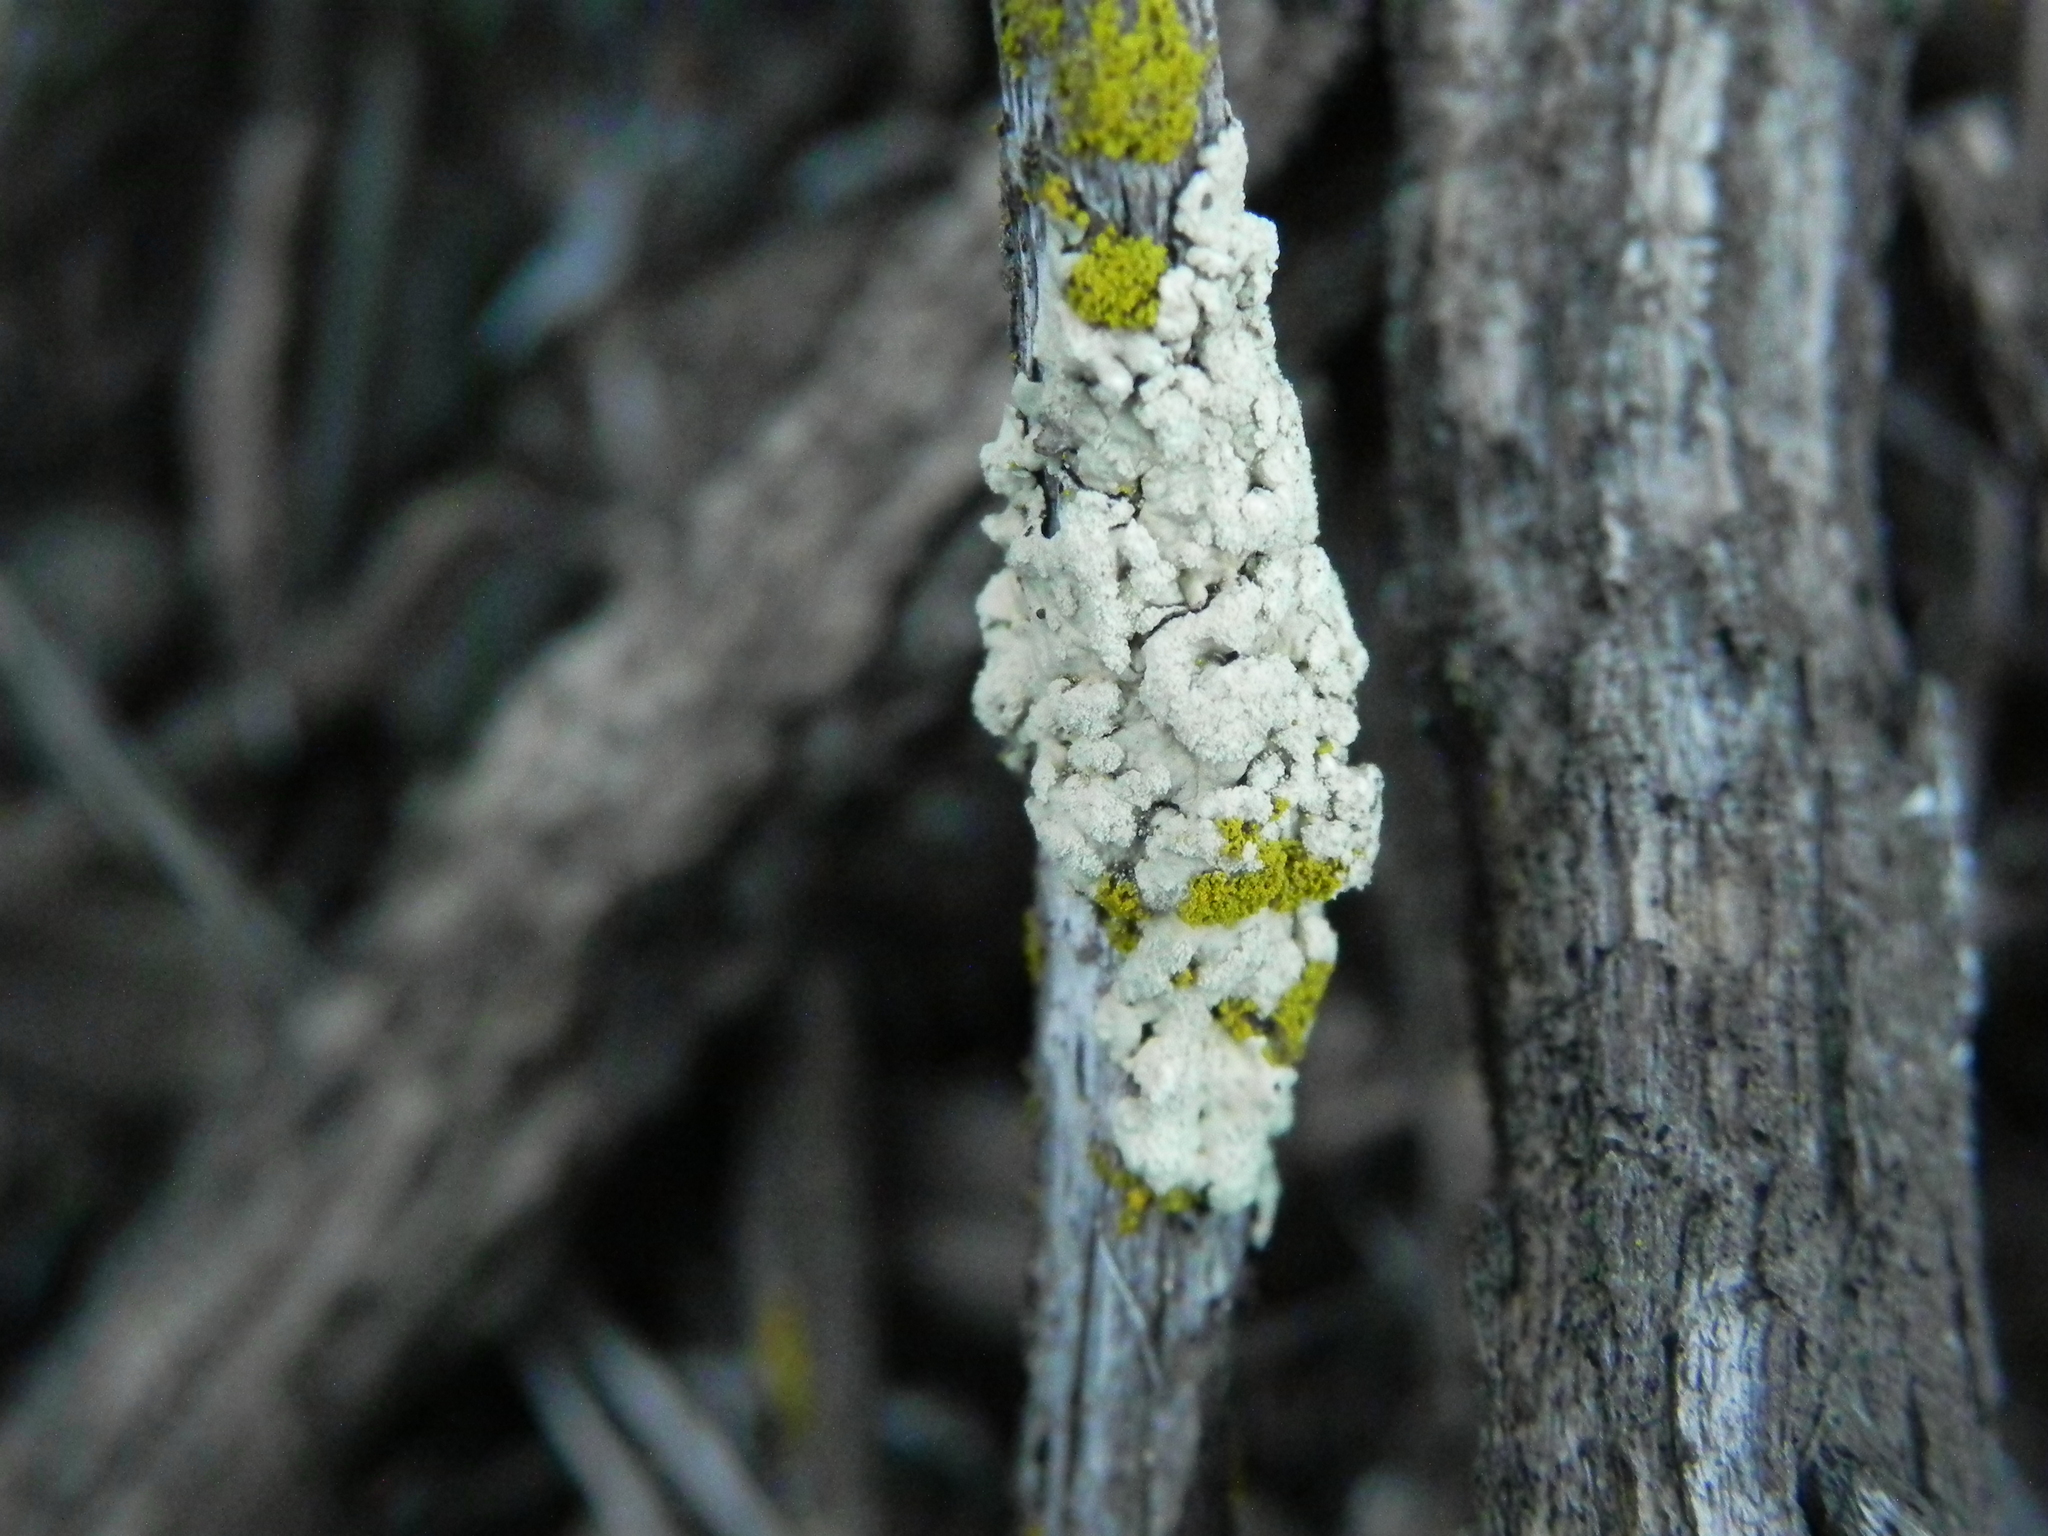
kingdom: Fungi
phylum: Ascomycota
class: Lecanoromycetes
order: Lecanorales
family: Parmeliaceae
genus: Flavoparmelia
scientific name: Flavoparmelia subcapitata
